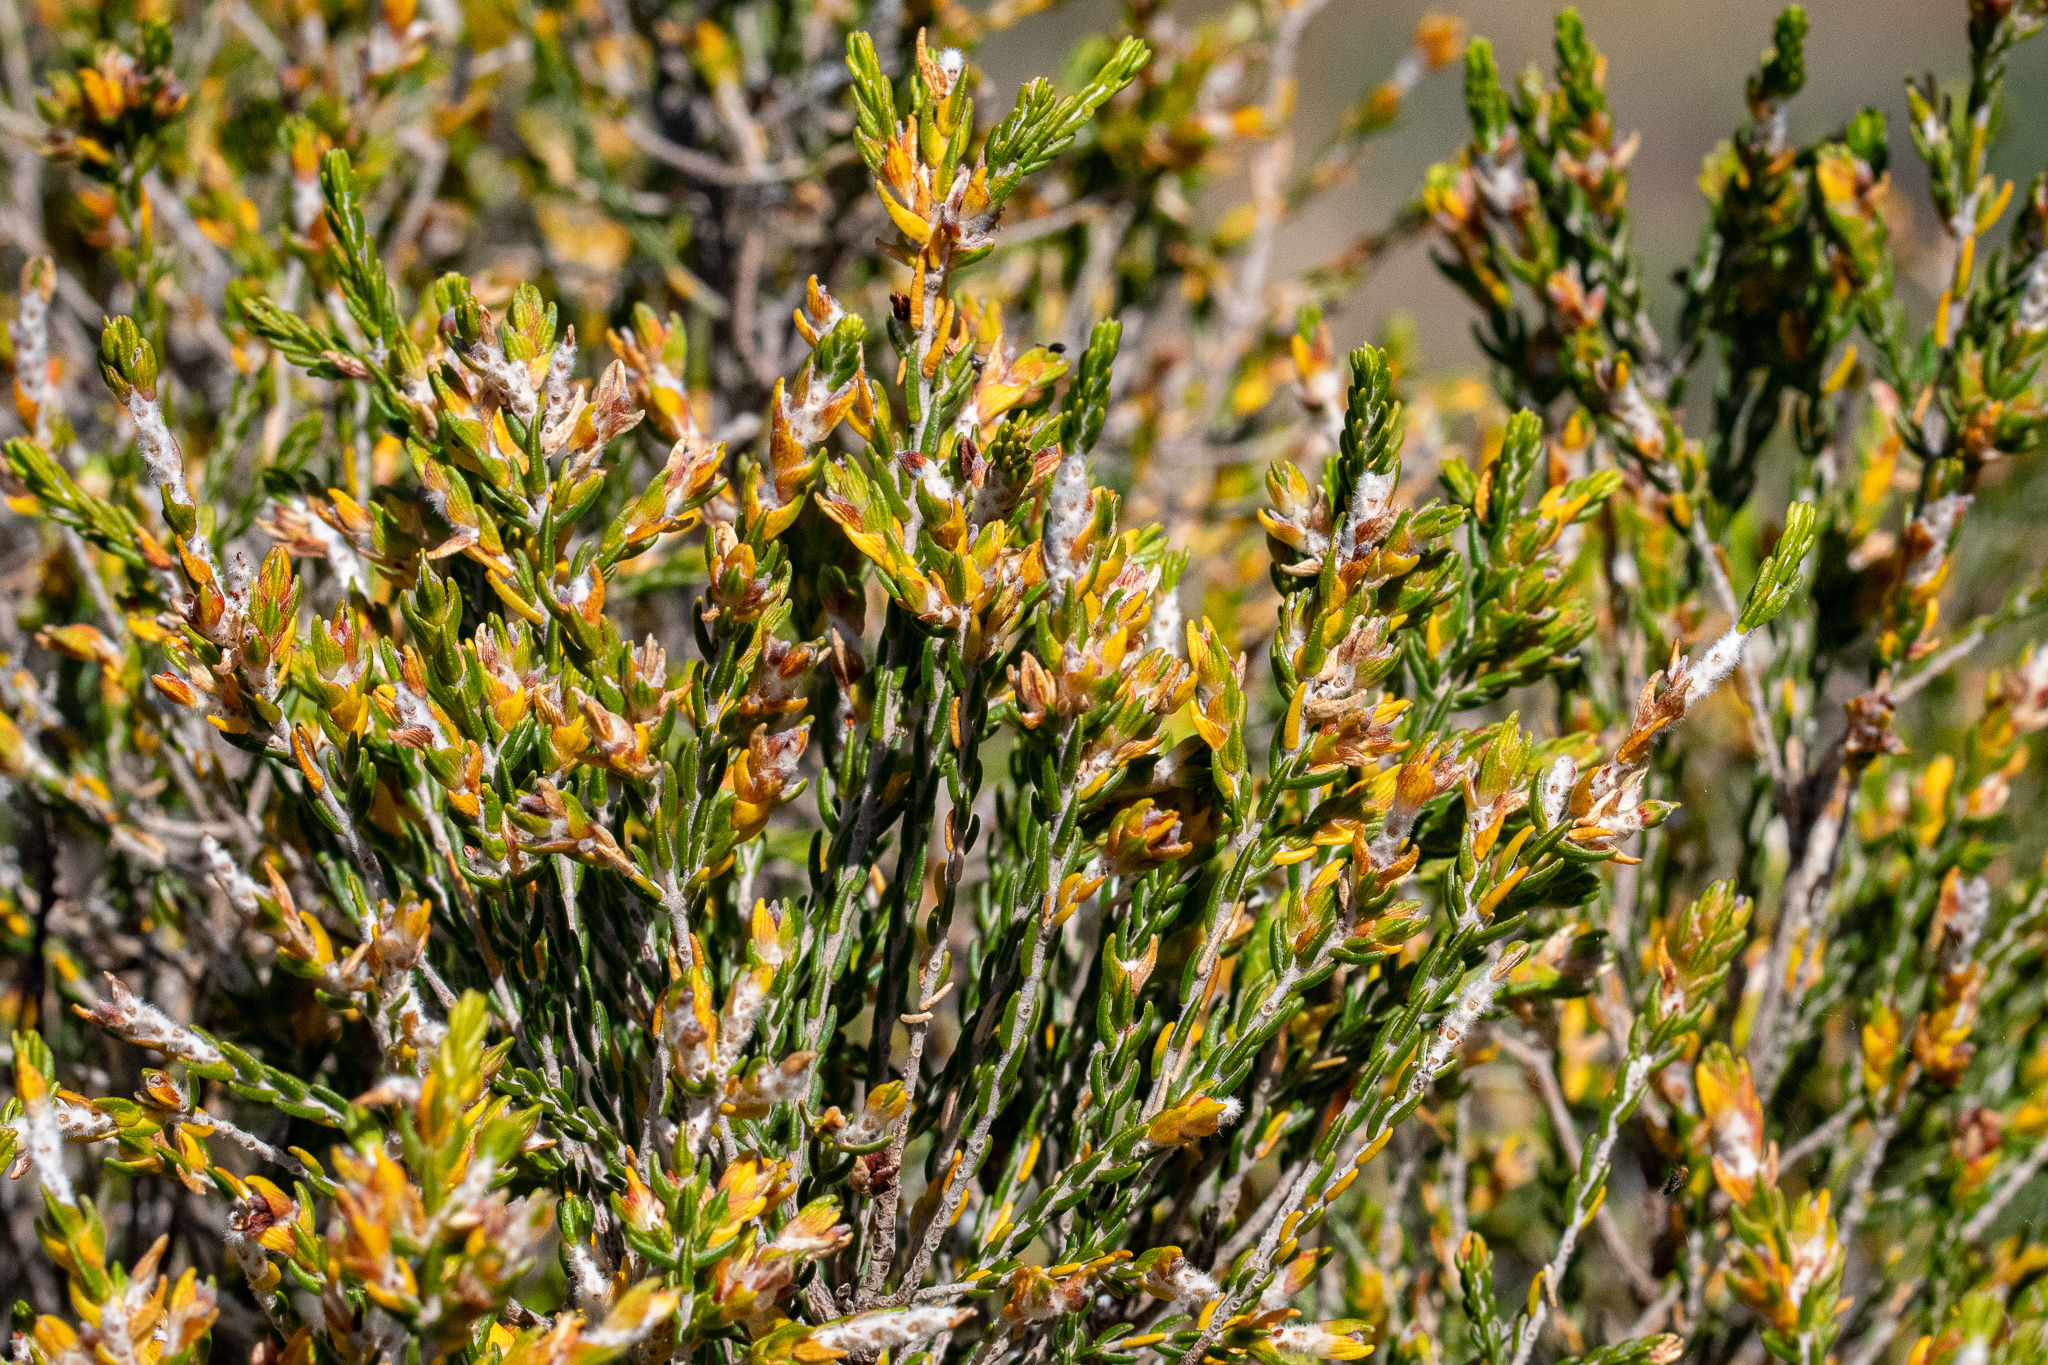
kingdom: Plantae
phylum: Tracheophyta
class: Magnoliopsida
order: Malvales
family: Thymelaeaceae
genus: Passerina
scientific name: Passerina corymbosa
